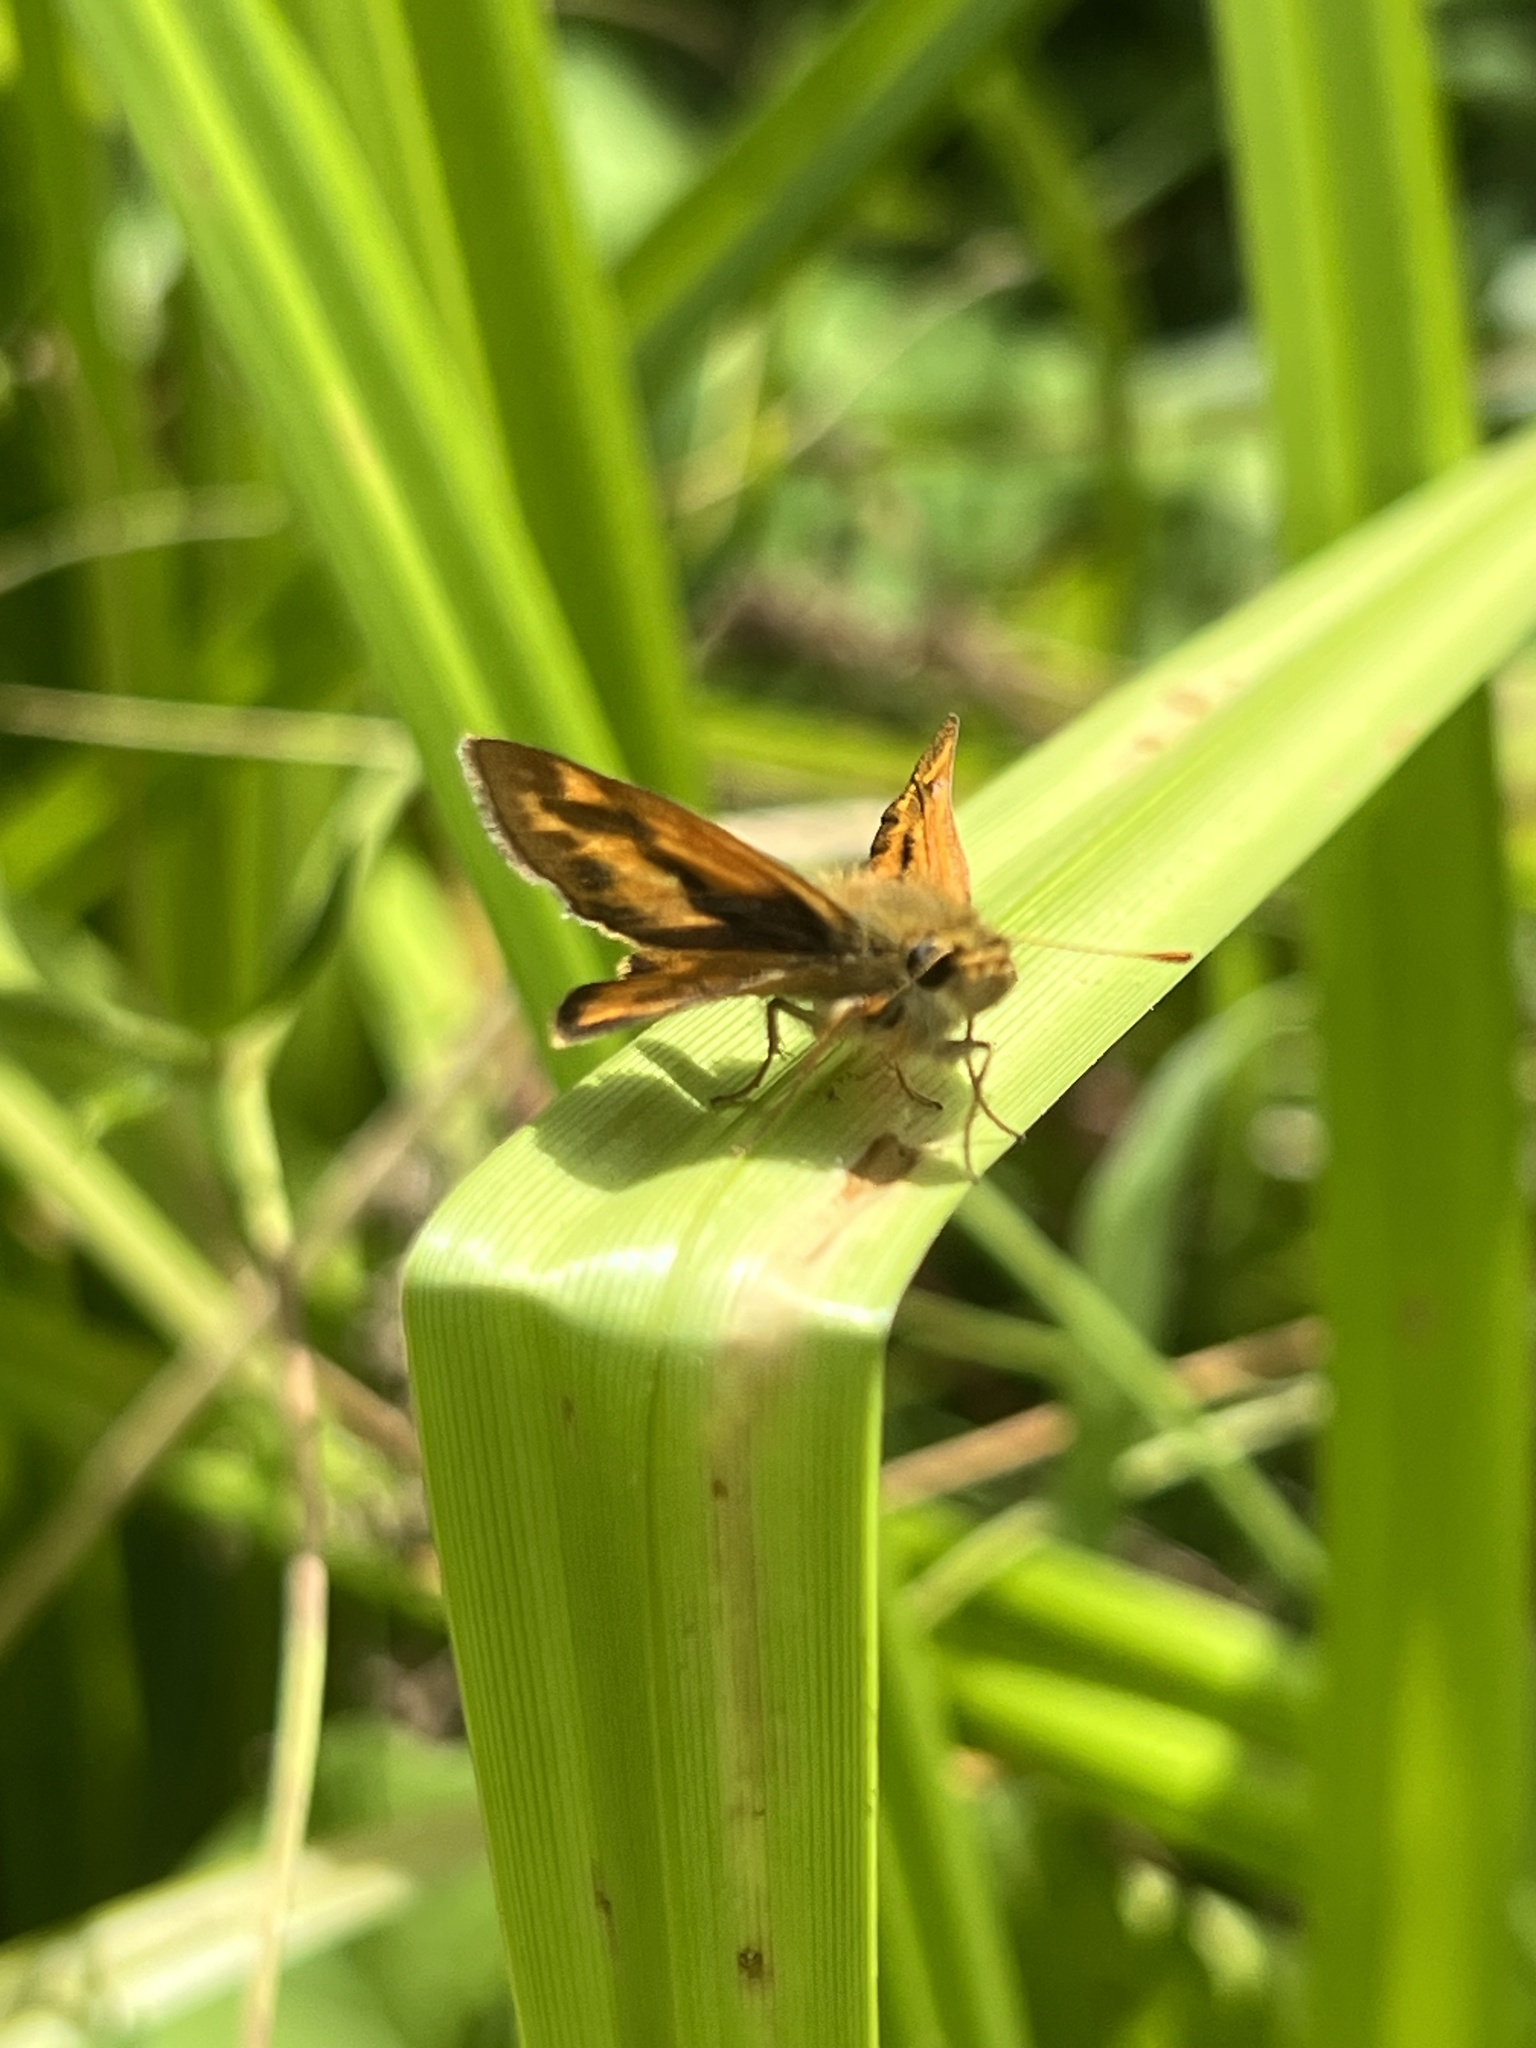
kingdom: Animalia
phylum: Arthropoda
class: Insecta
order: Lepidoptera
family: Hesperiidae
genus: Ochlodes
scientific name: Ochlodes sylvanoides
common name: Woodland skipper
